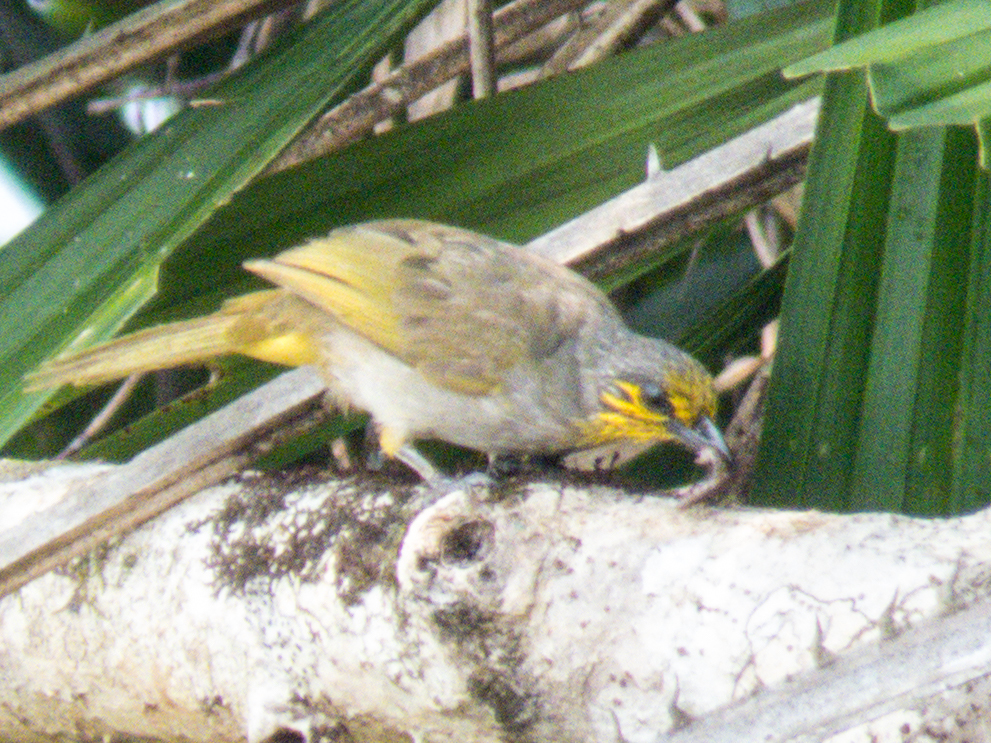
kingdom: Animalia
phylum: Chordata
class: Aves
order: Passeriformes
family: Pycnonotidae
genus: Pycnonotus
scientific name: Pycnonotus finlaysoni
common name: Stripe-throated bulbul
